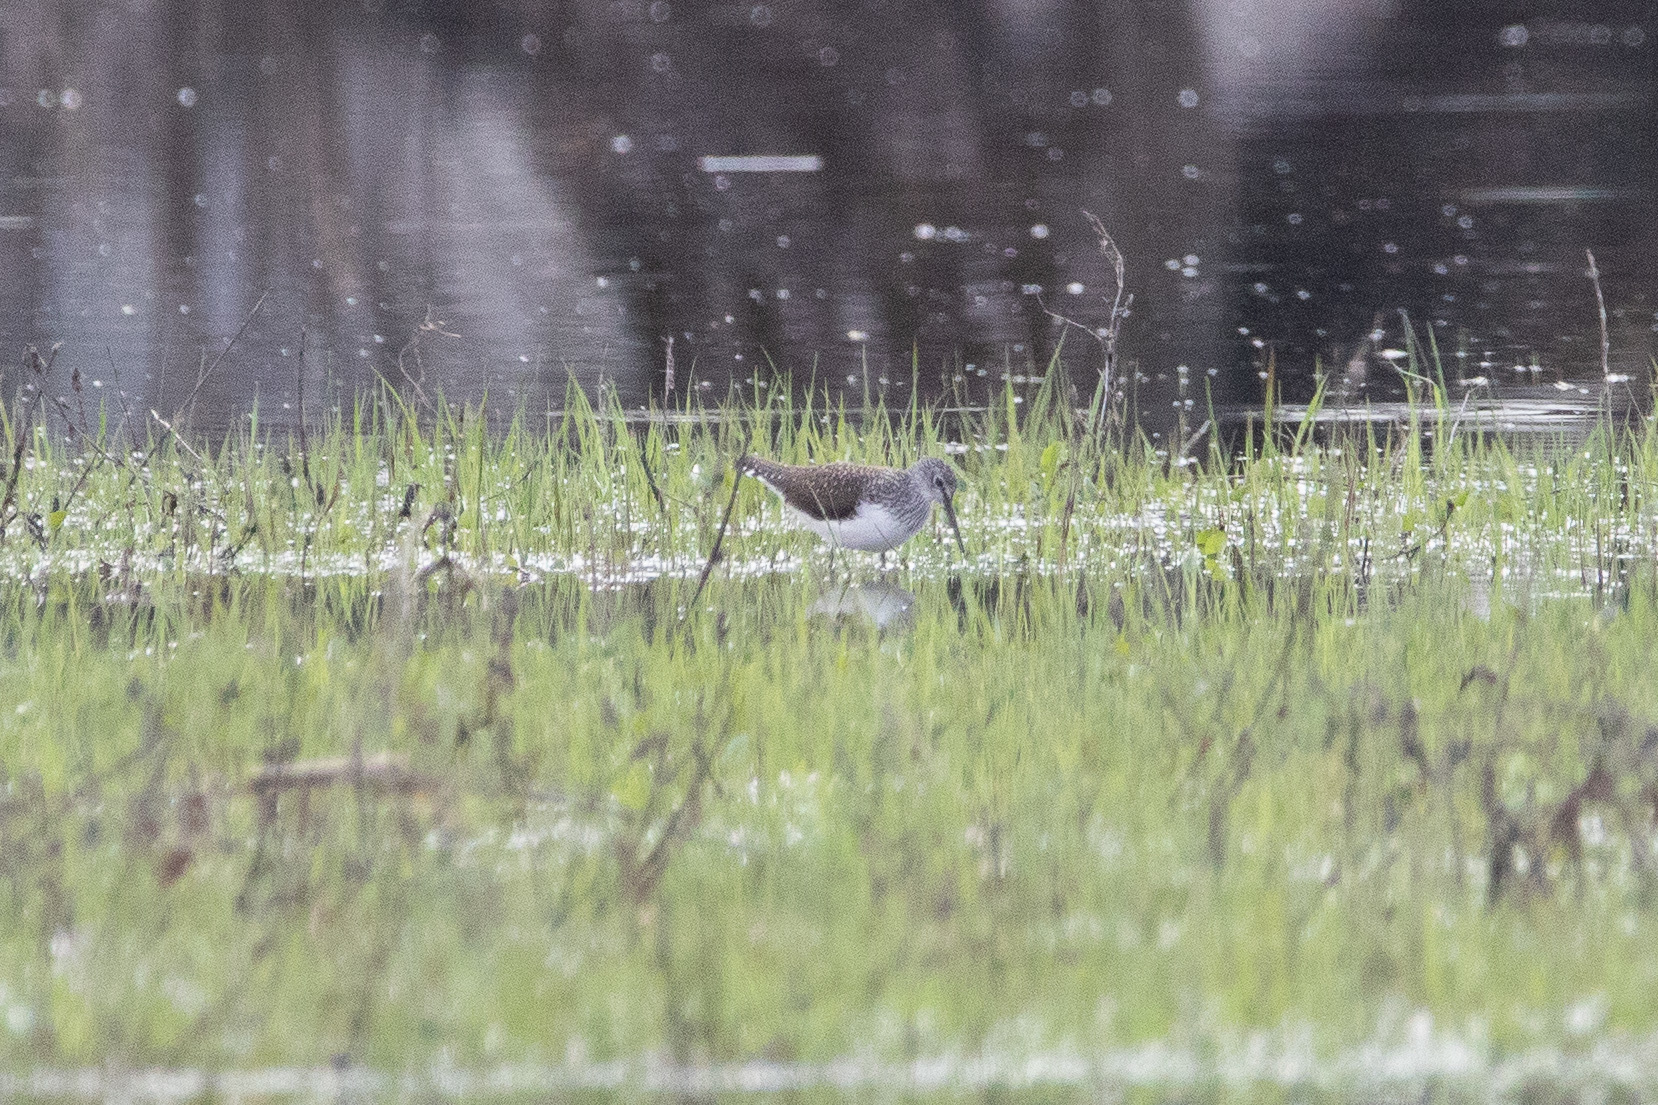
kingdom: Animalia
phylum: Chordata
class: Aves
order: Charadriiformes
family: Scolopacidae
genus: Tringa
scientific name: Tringa ochropus
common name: Green sandpiper
